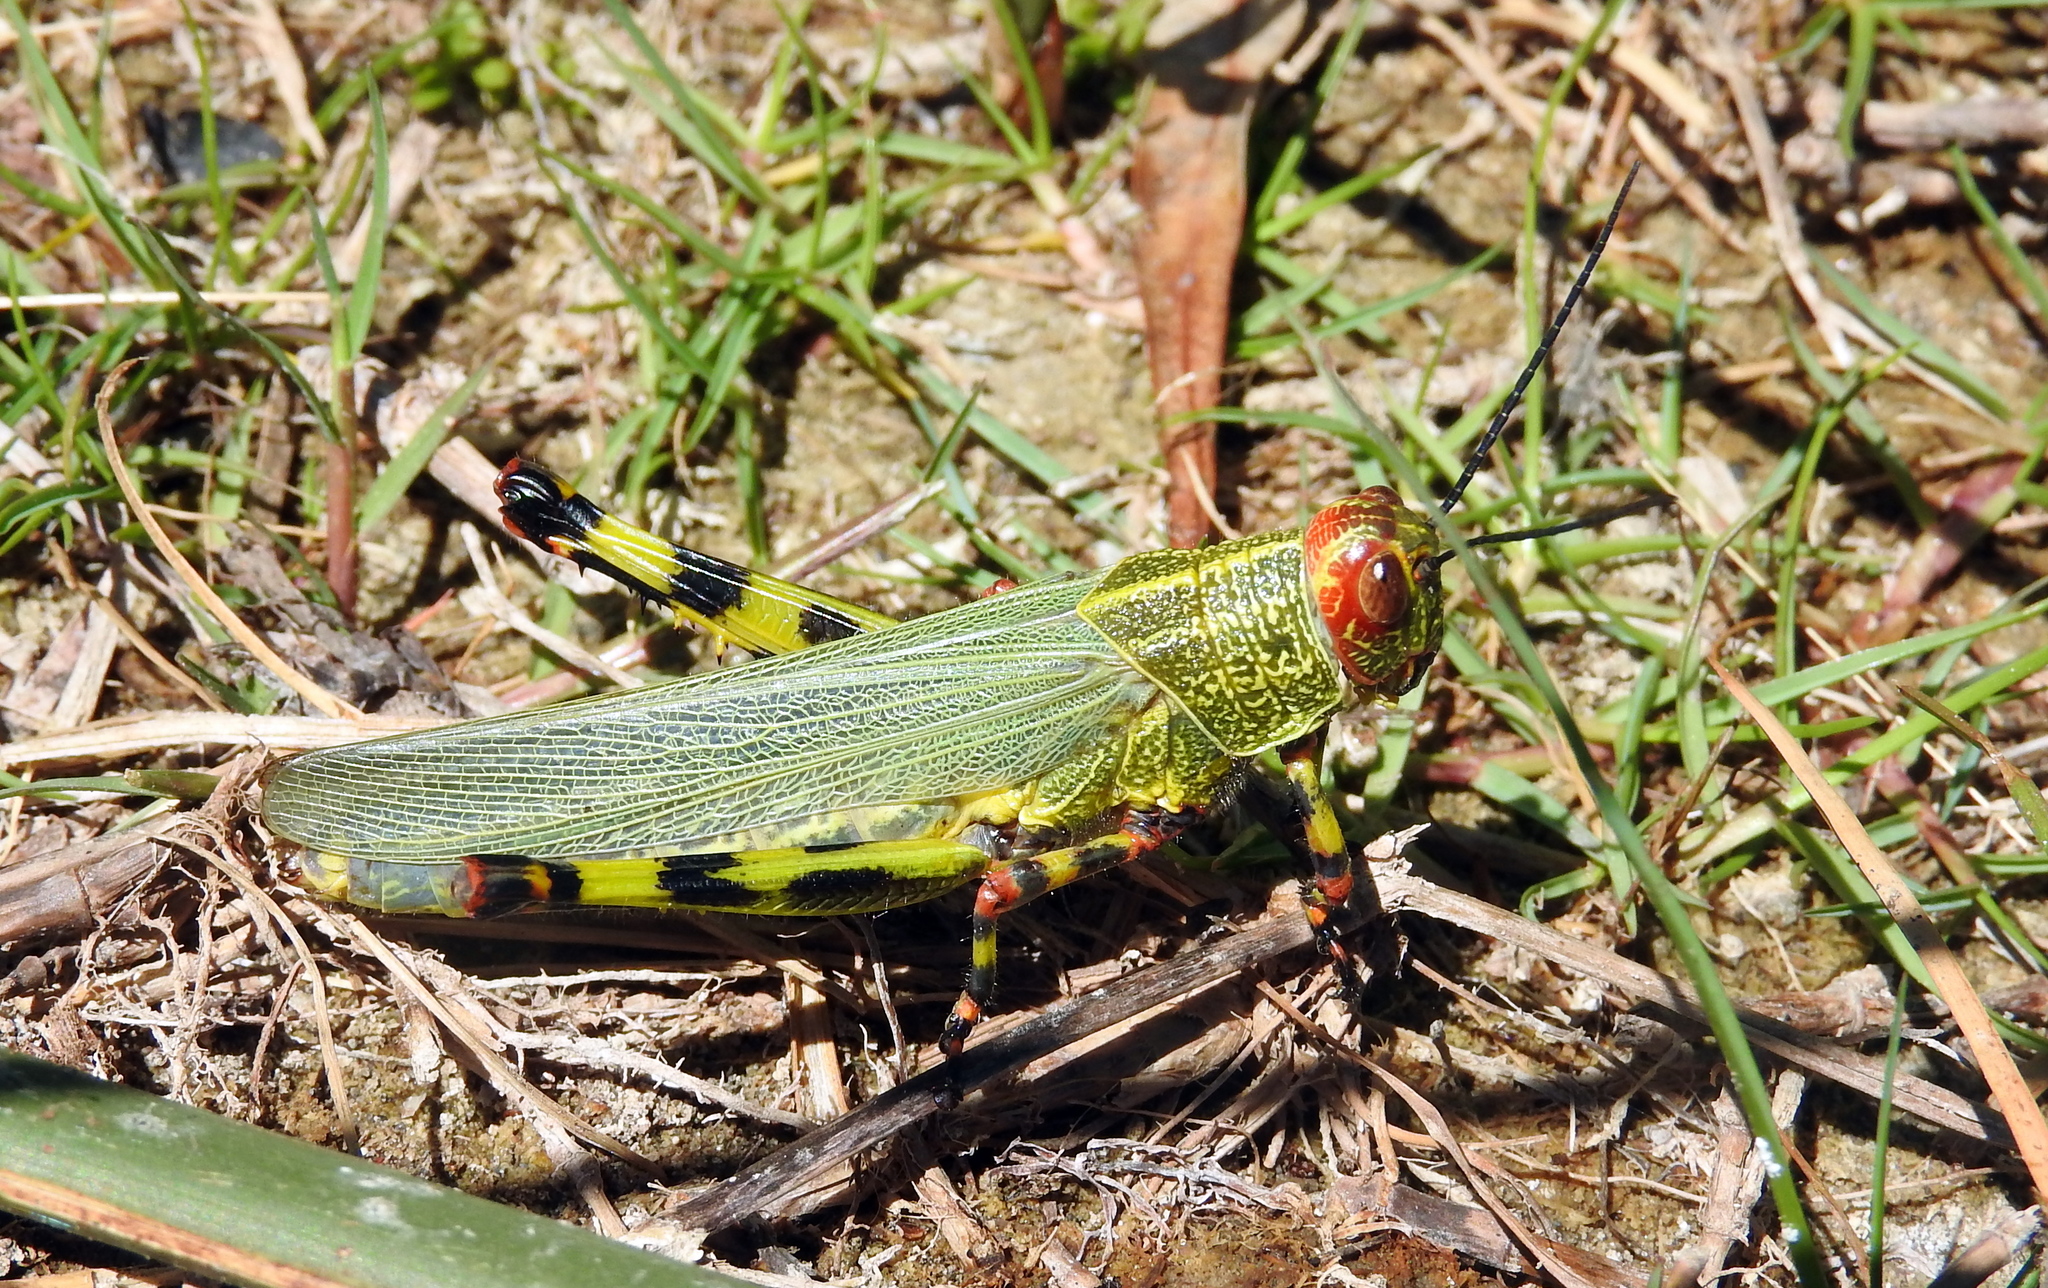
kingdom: Animalia
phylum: Arthropoda
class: Insecta
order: Orthoptera
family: Romaleidae
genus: Zoniopoda
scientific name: Zoniopoda tarsata
